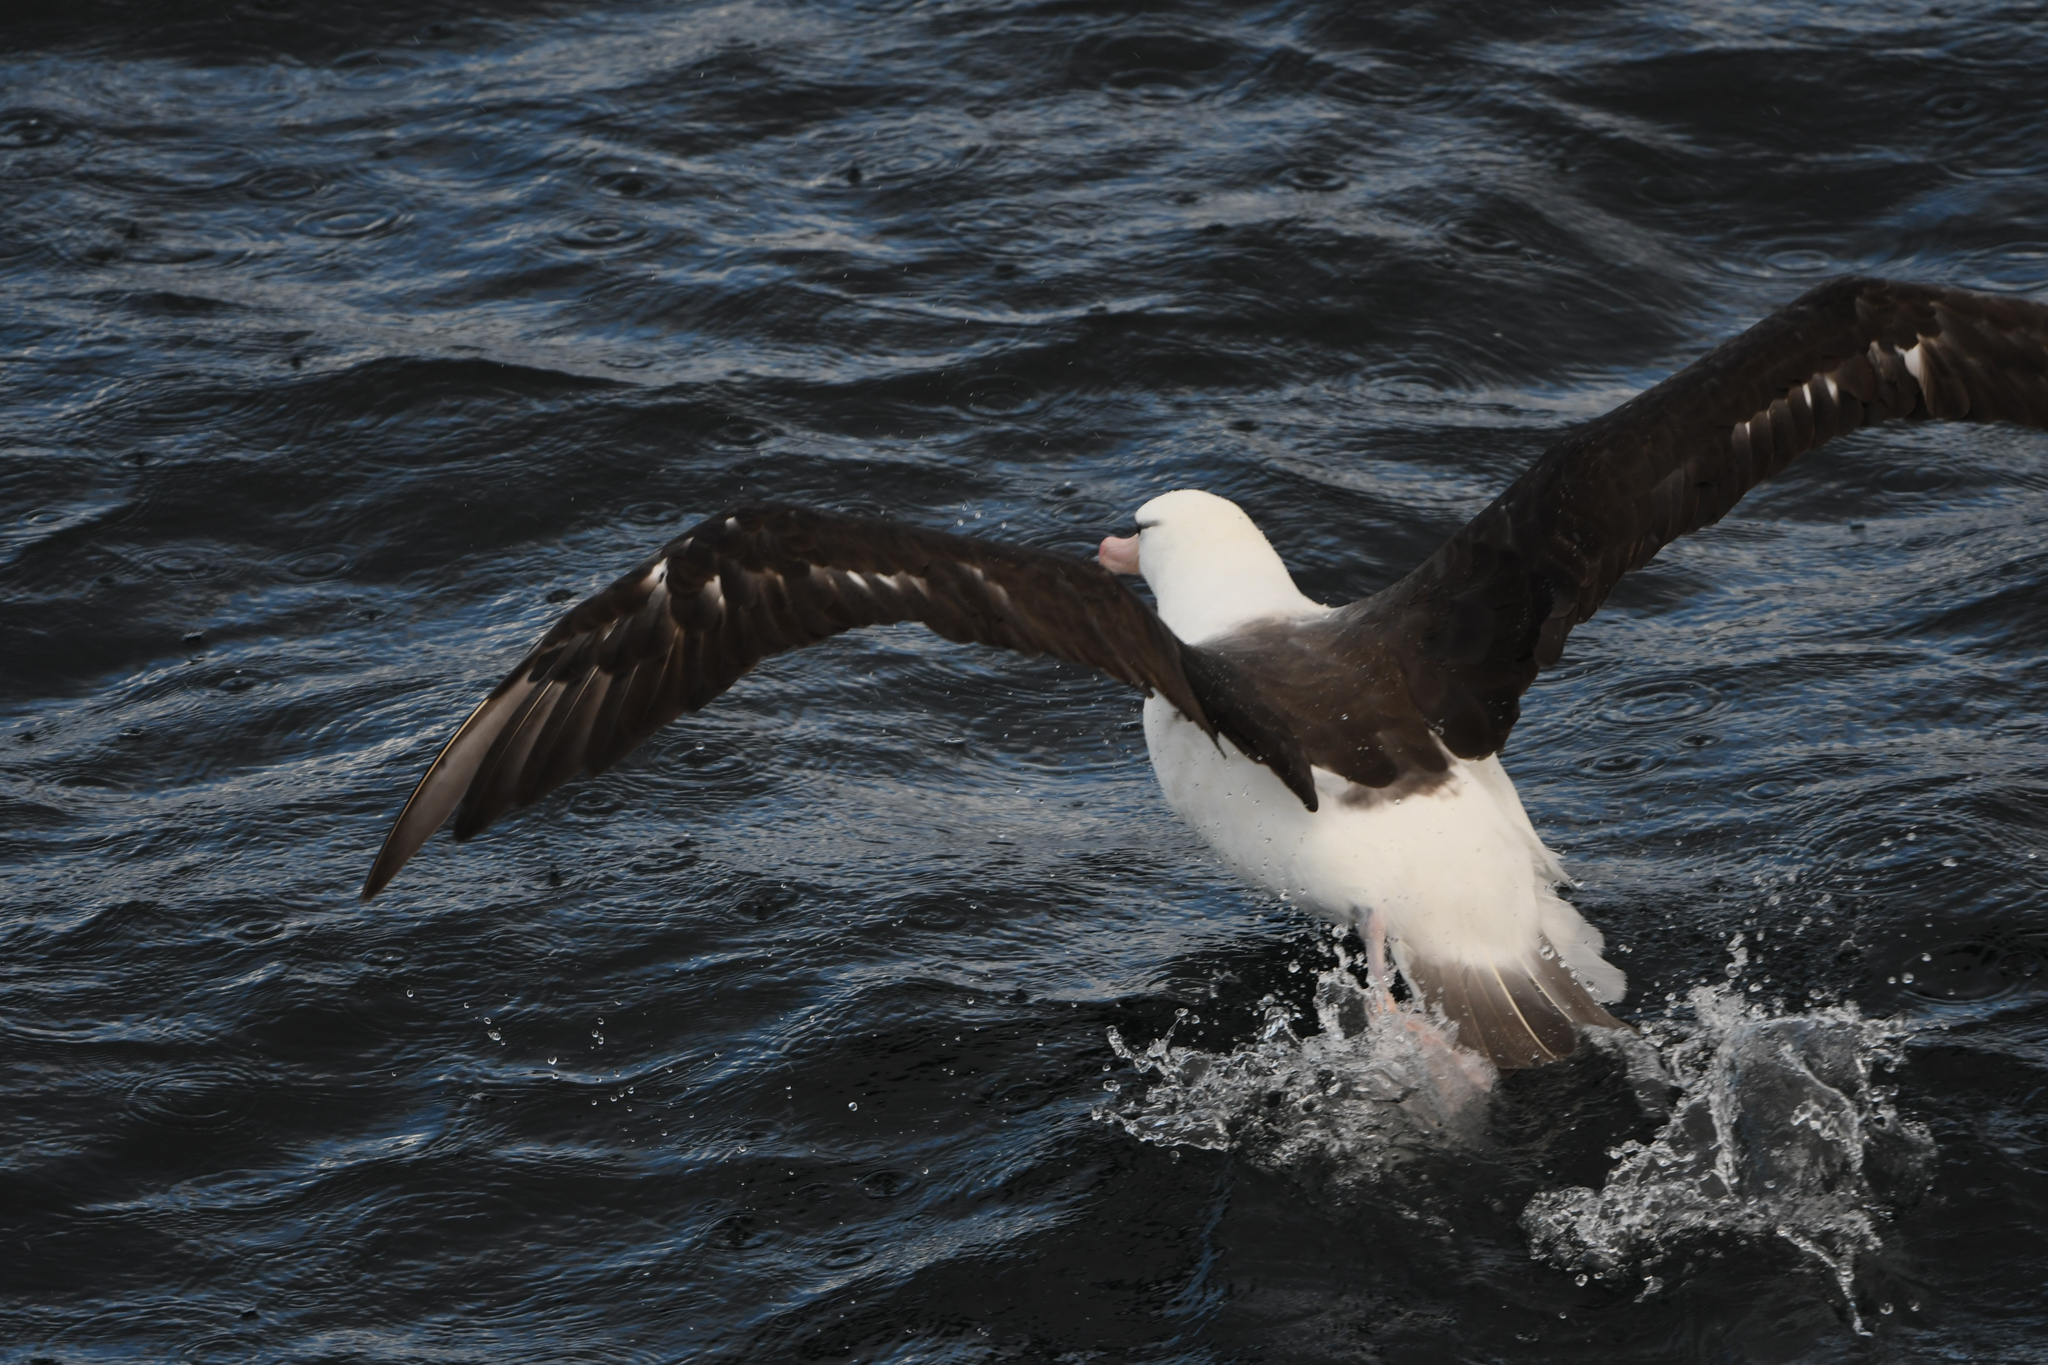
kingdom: Animalia
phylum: Chordata
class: Aves
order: Procellariiformes
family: Diomedeidae
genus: Thalassarche
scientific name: Thalassarche melanophris
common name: Black-browed albatross
